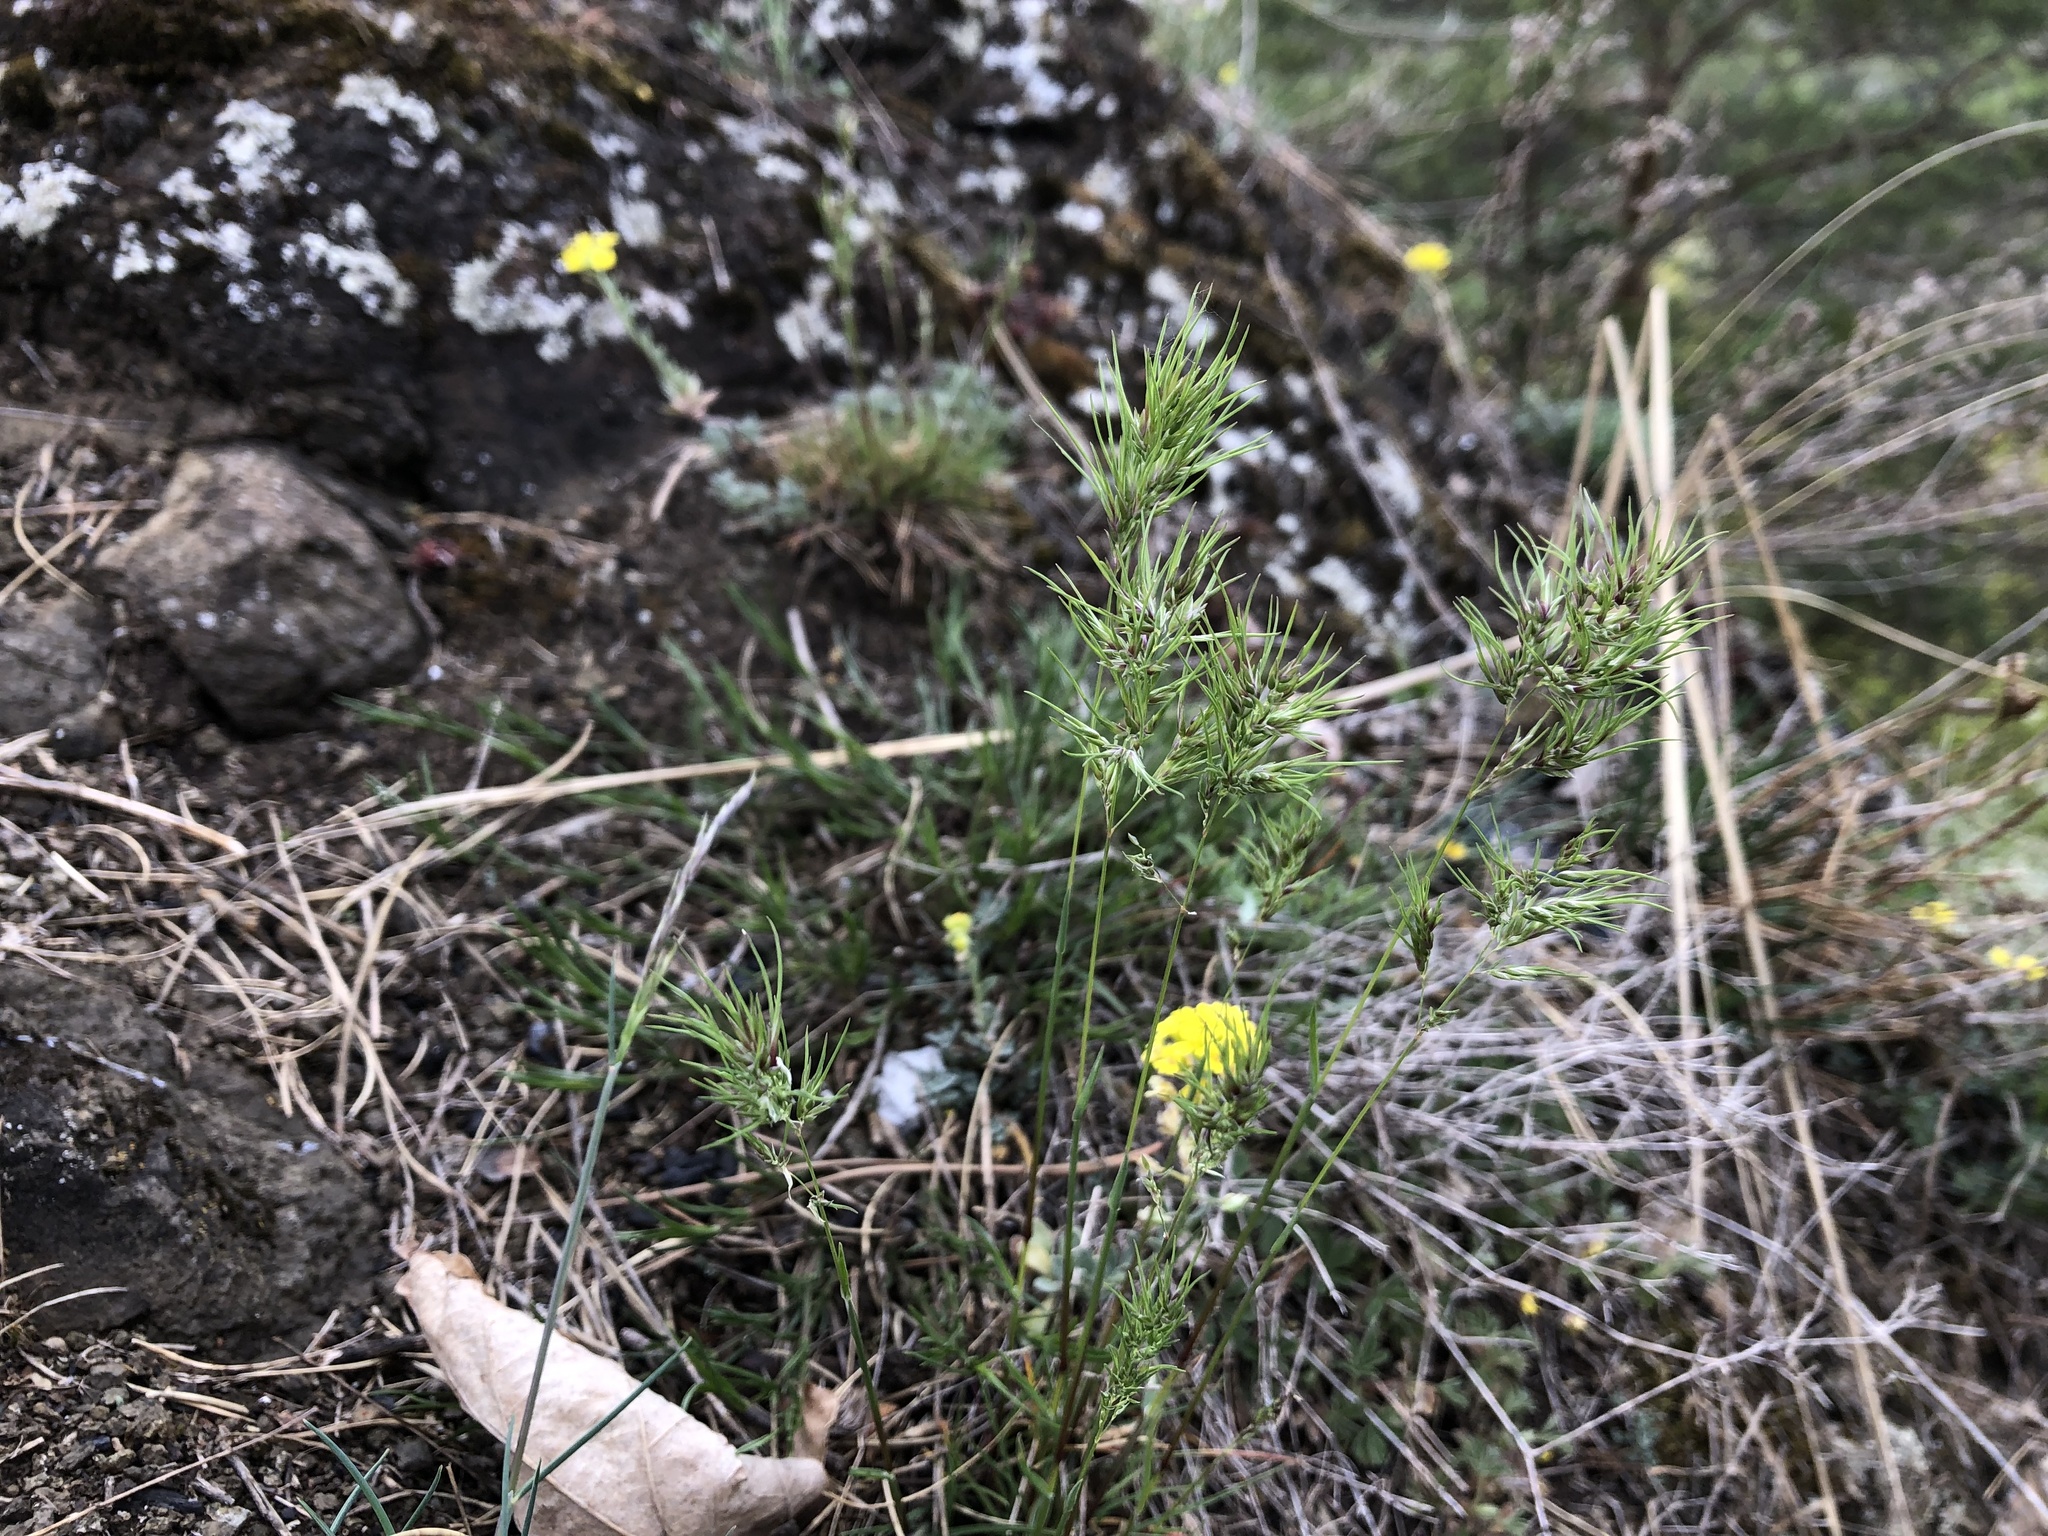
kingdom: Plantae
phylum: Tracheophyta
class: Liliopsida
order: Poales
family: Poaceae
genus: Poa
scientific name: Poa bulbosa
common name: Bulbous bluegrass
